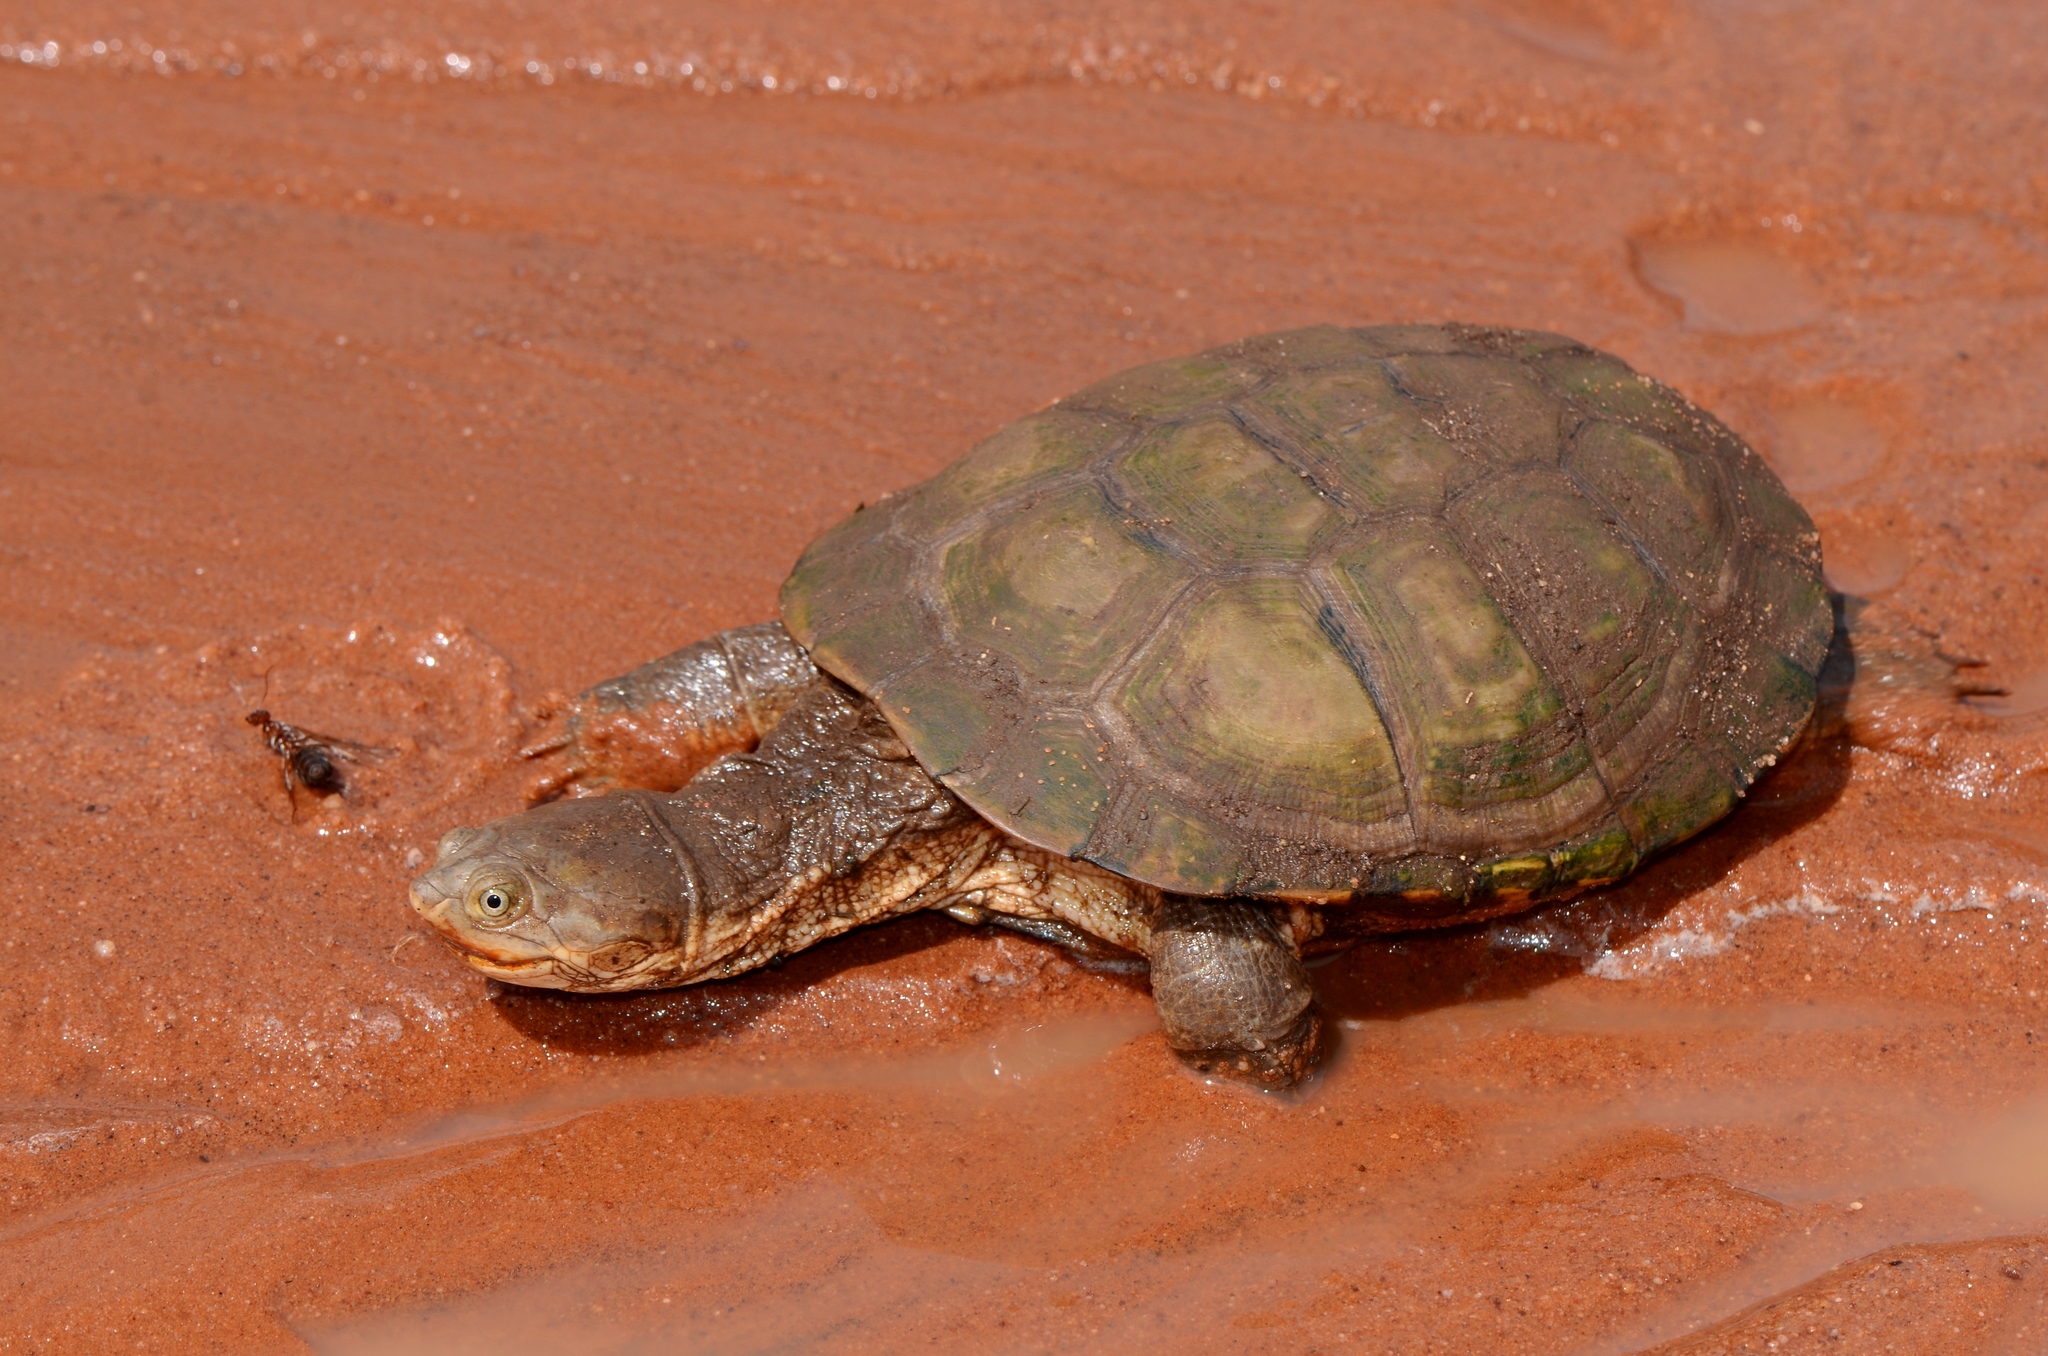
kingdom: Animalia
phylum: Chordata
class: Testudines
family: Pelomedusidae
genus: Pelomedusa
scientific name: Pelomedusa subrufa
